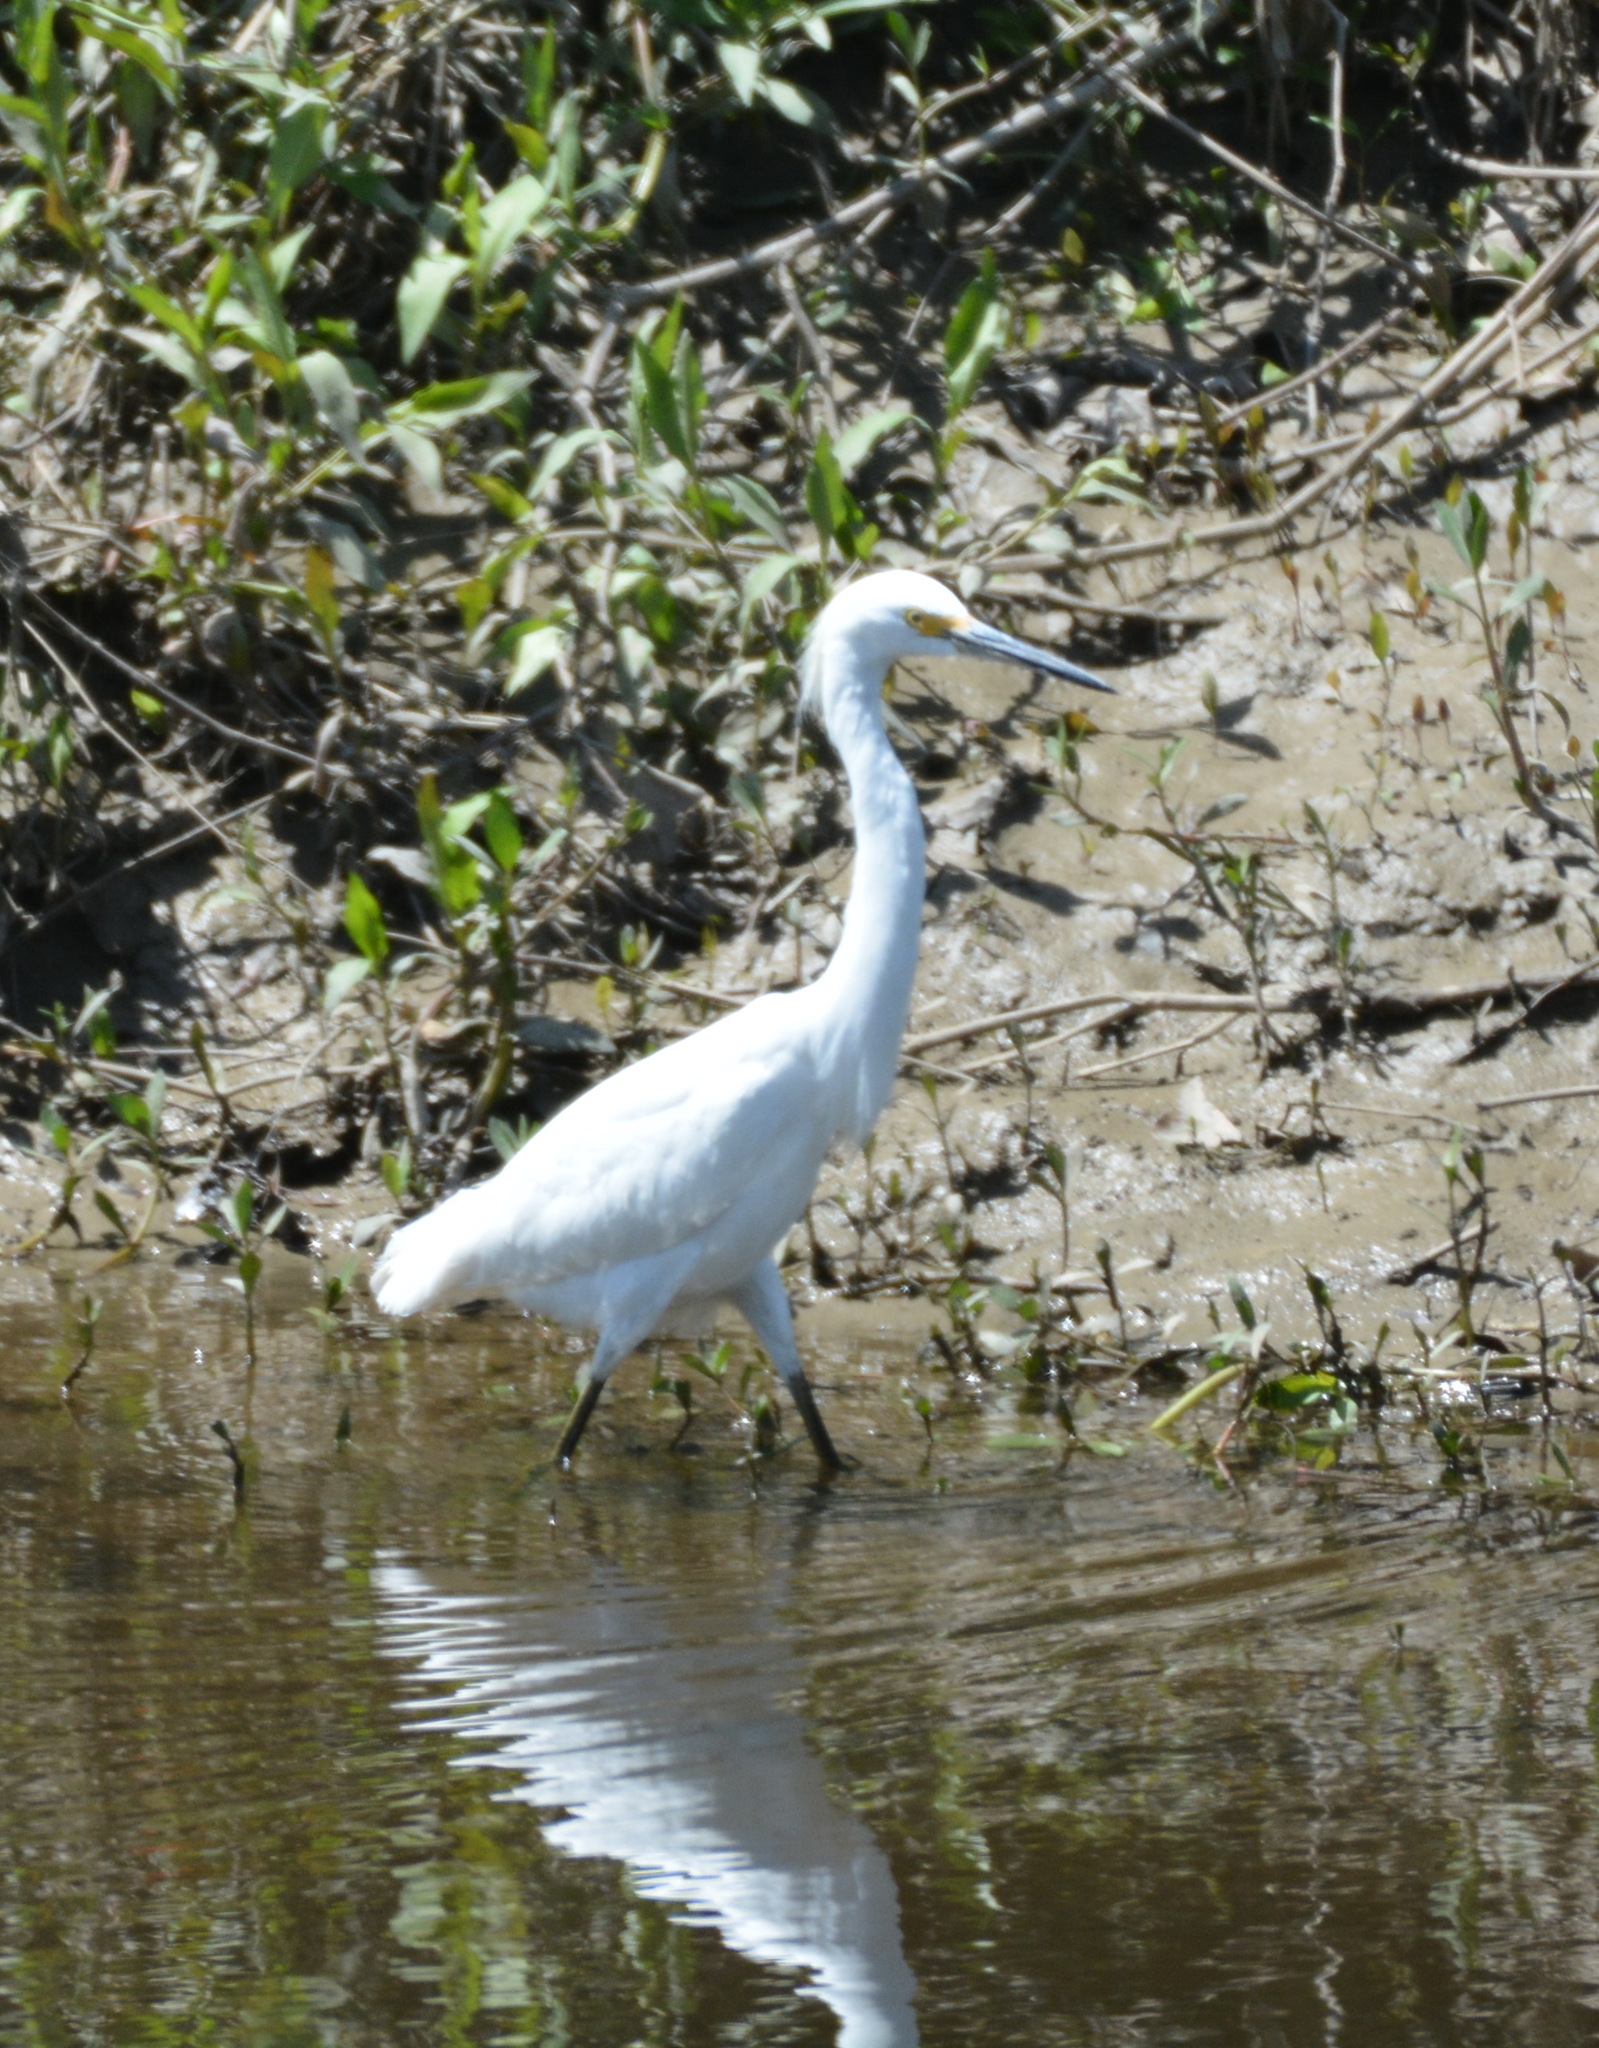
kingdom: Animalia
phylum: Chordata
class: Aves
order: Pelecaniformes
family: Ardeidae
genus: Egretta
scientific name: Egretta thula
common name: Snowy egret
